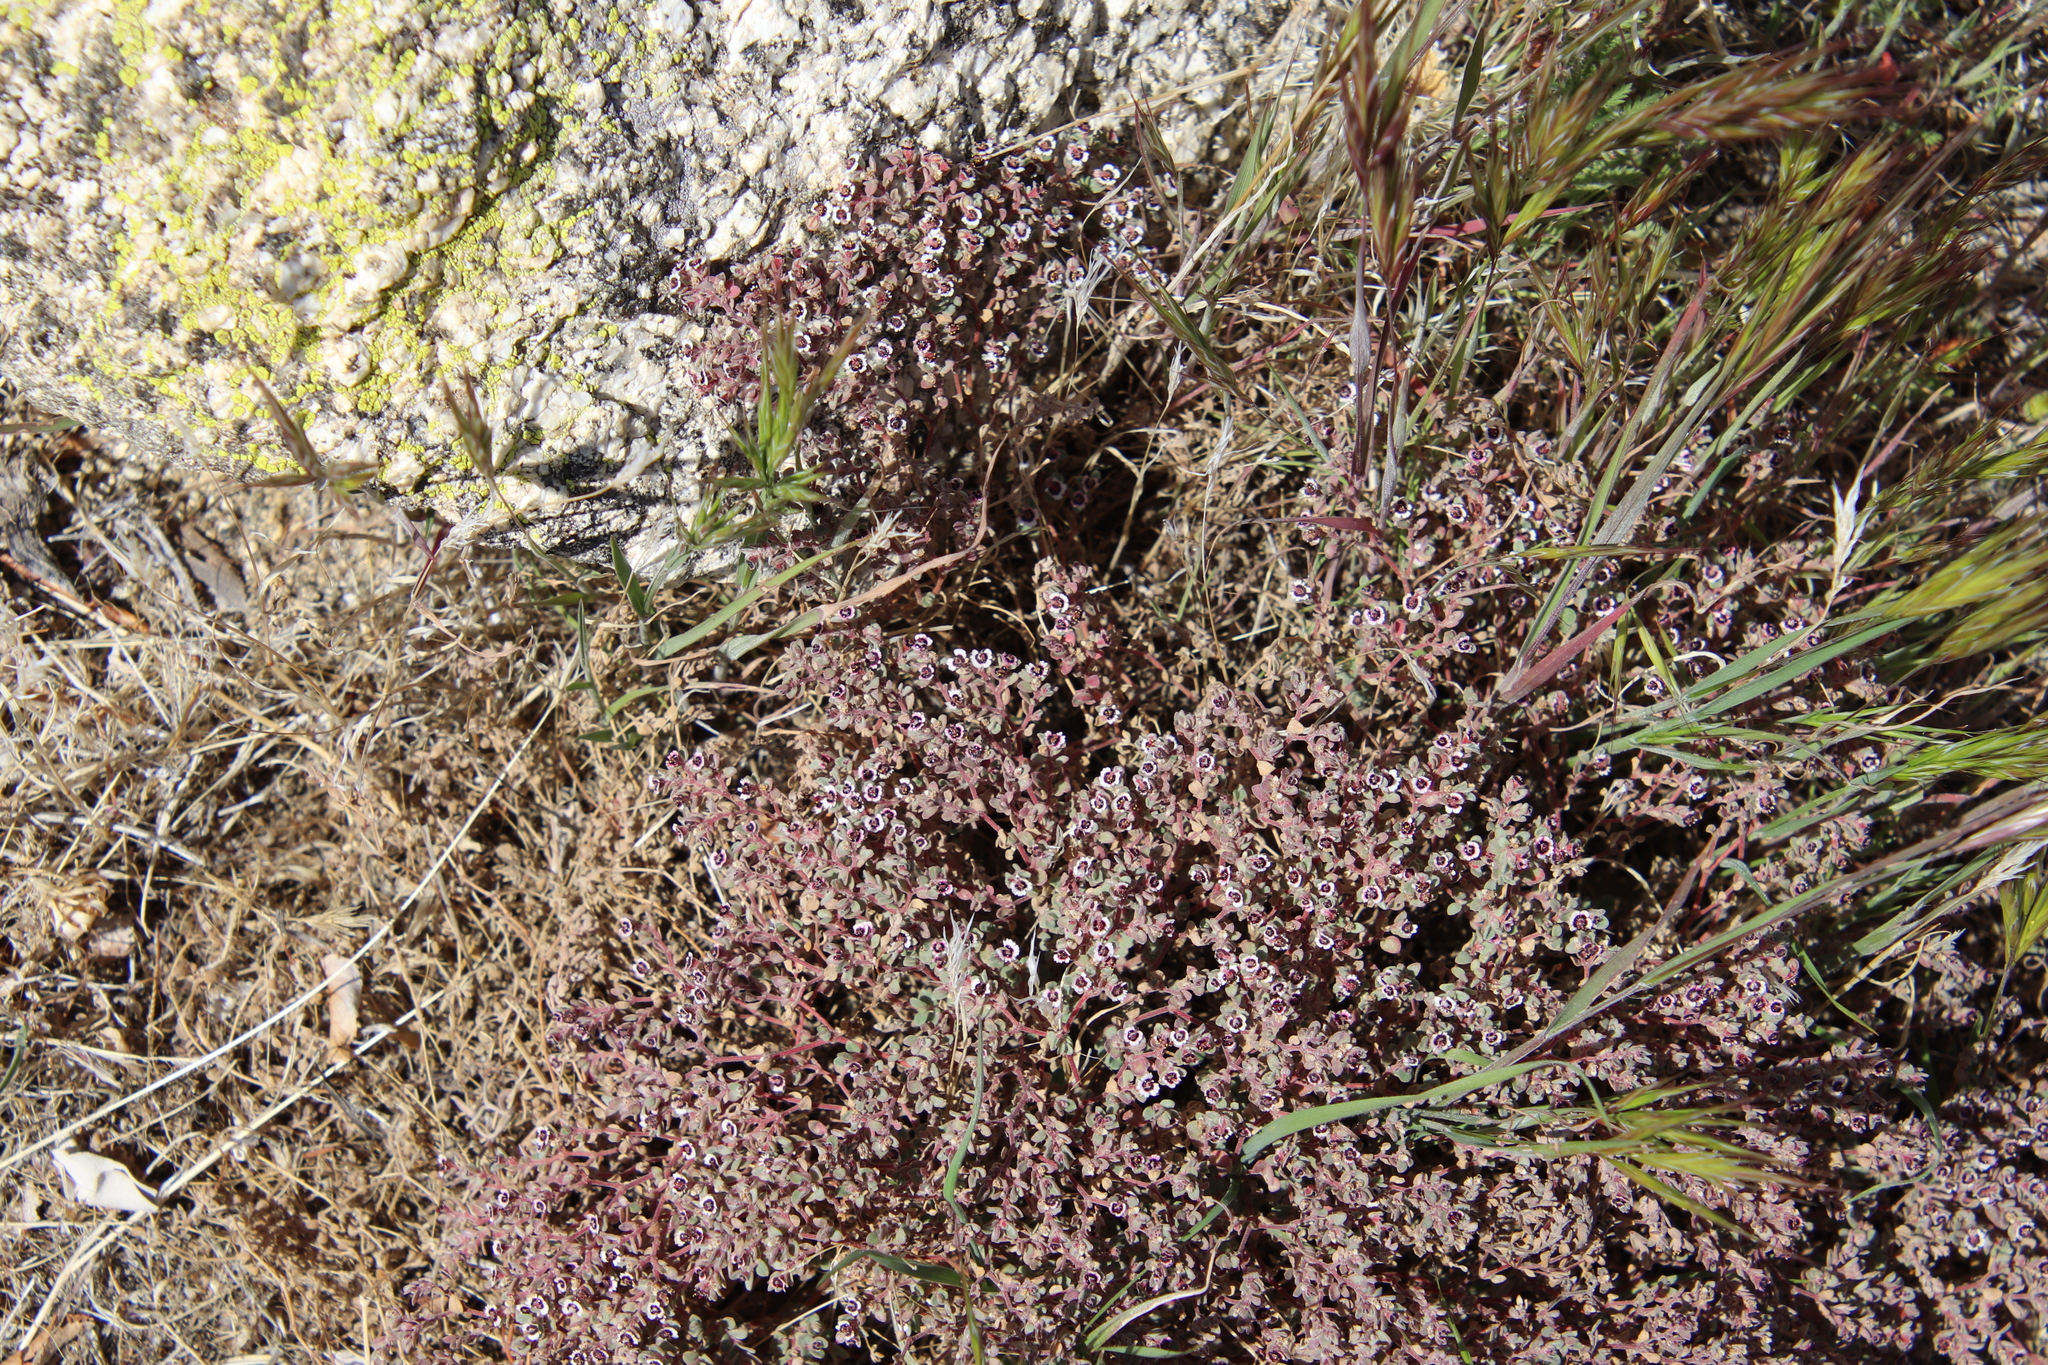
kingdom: Plantae
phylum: Tracheophyta
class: Magnoliopsida
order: Malpighiales
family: Euphorbiaceae
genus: Euphorbia
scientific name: Euphorbia melanadenia
